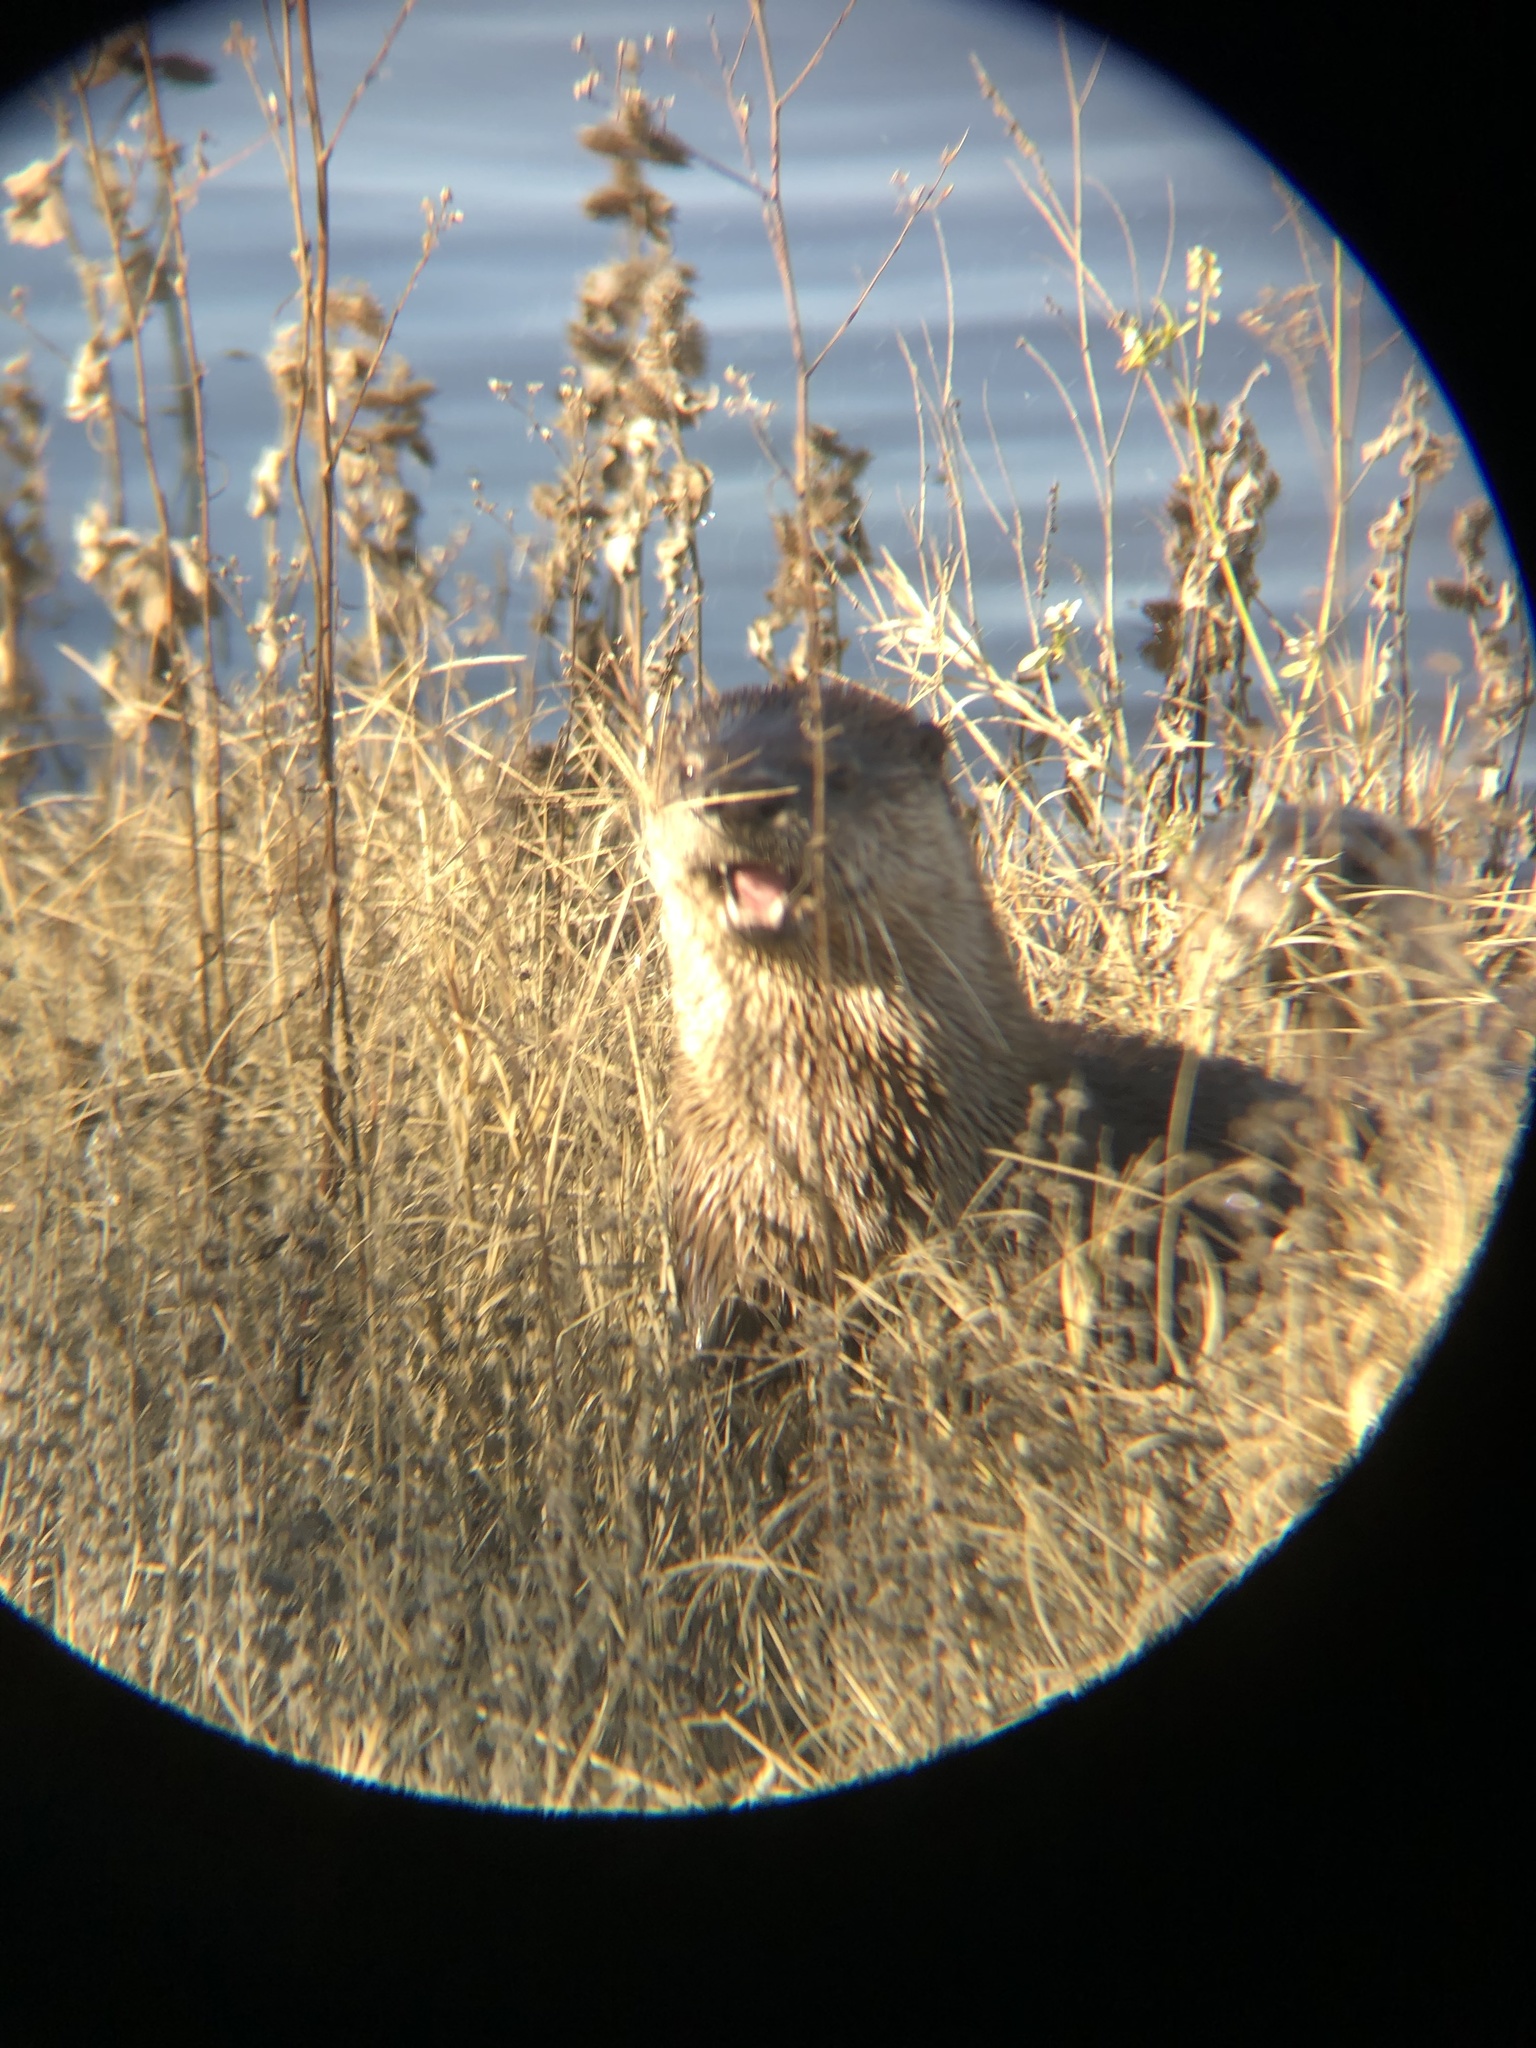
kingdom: Animalia
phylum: Chordata
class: Mammalia
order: Carnivora
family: Mustelidae
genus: Lontra
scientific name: Lontra canadensis
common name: North american river otter
